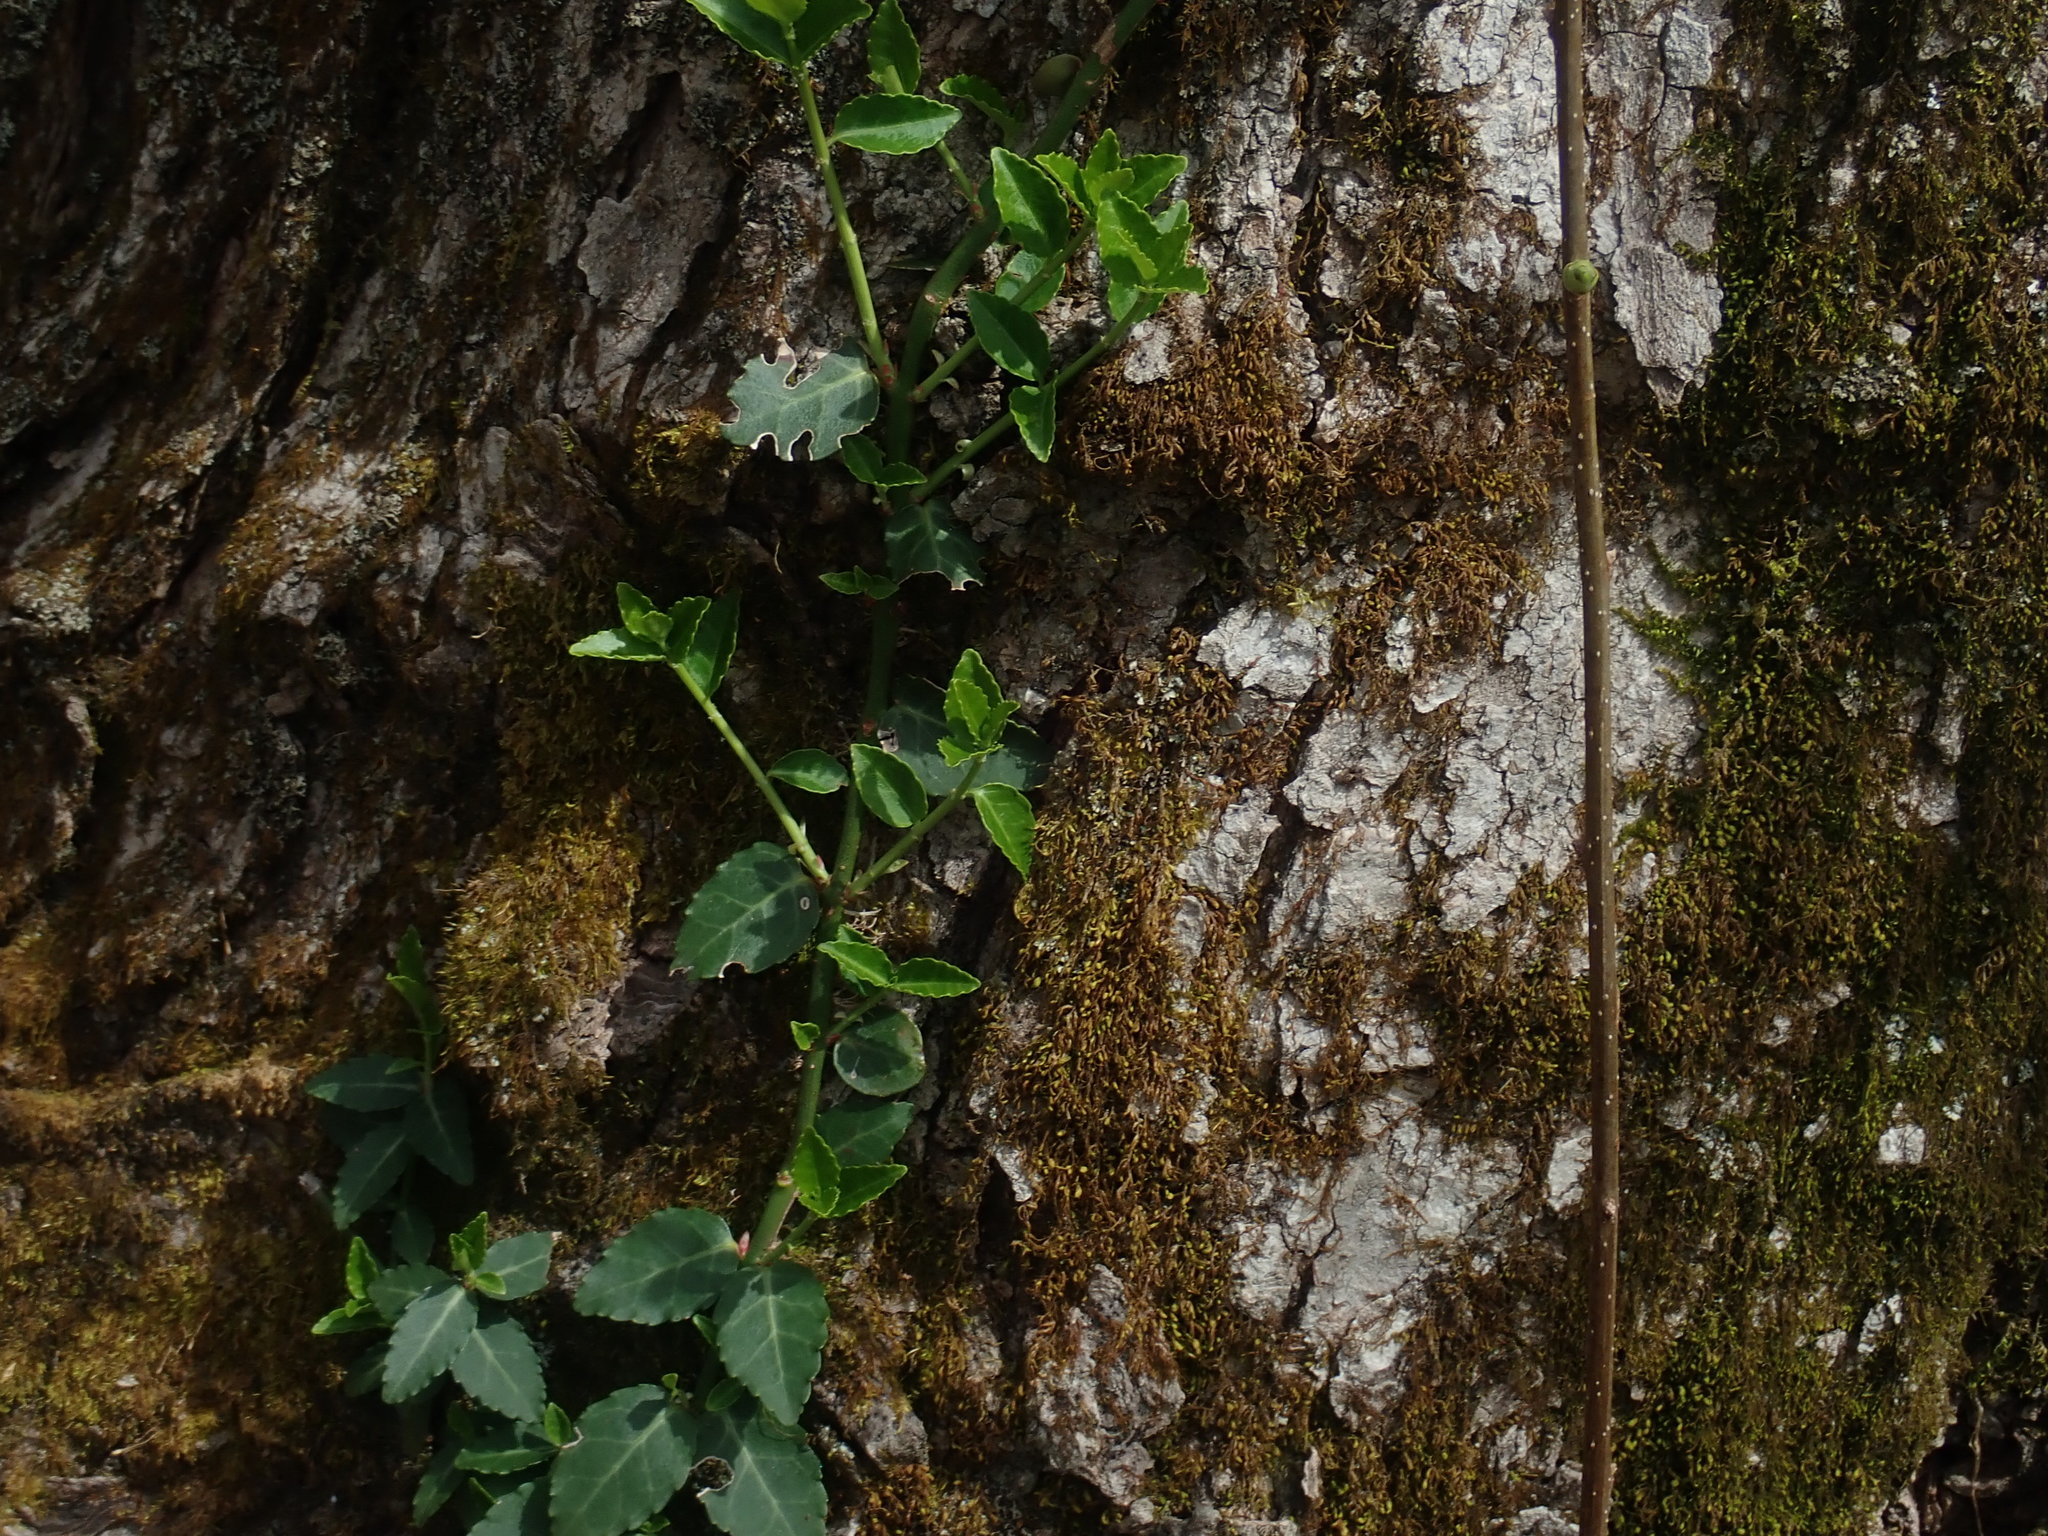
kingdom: Plantae
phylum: Tracheophyta
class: Magnoliopsida
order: Celastrales
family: Celastraceae
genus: Euonymus
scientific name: Euonymus fortunei
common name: Climbing euonymus
